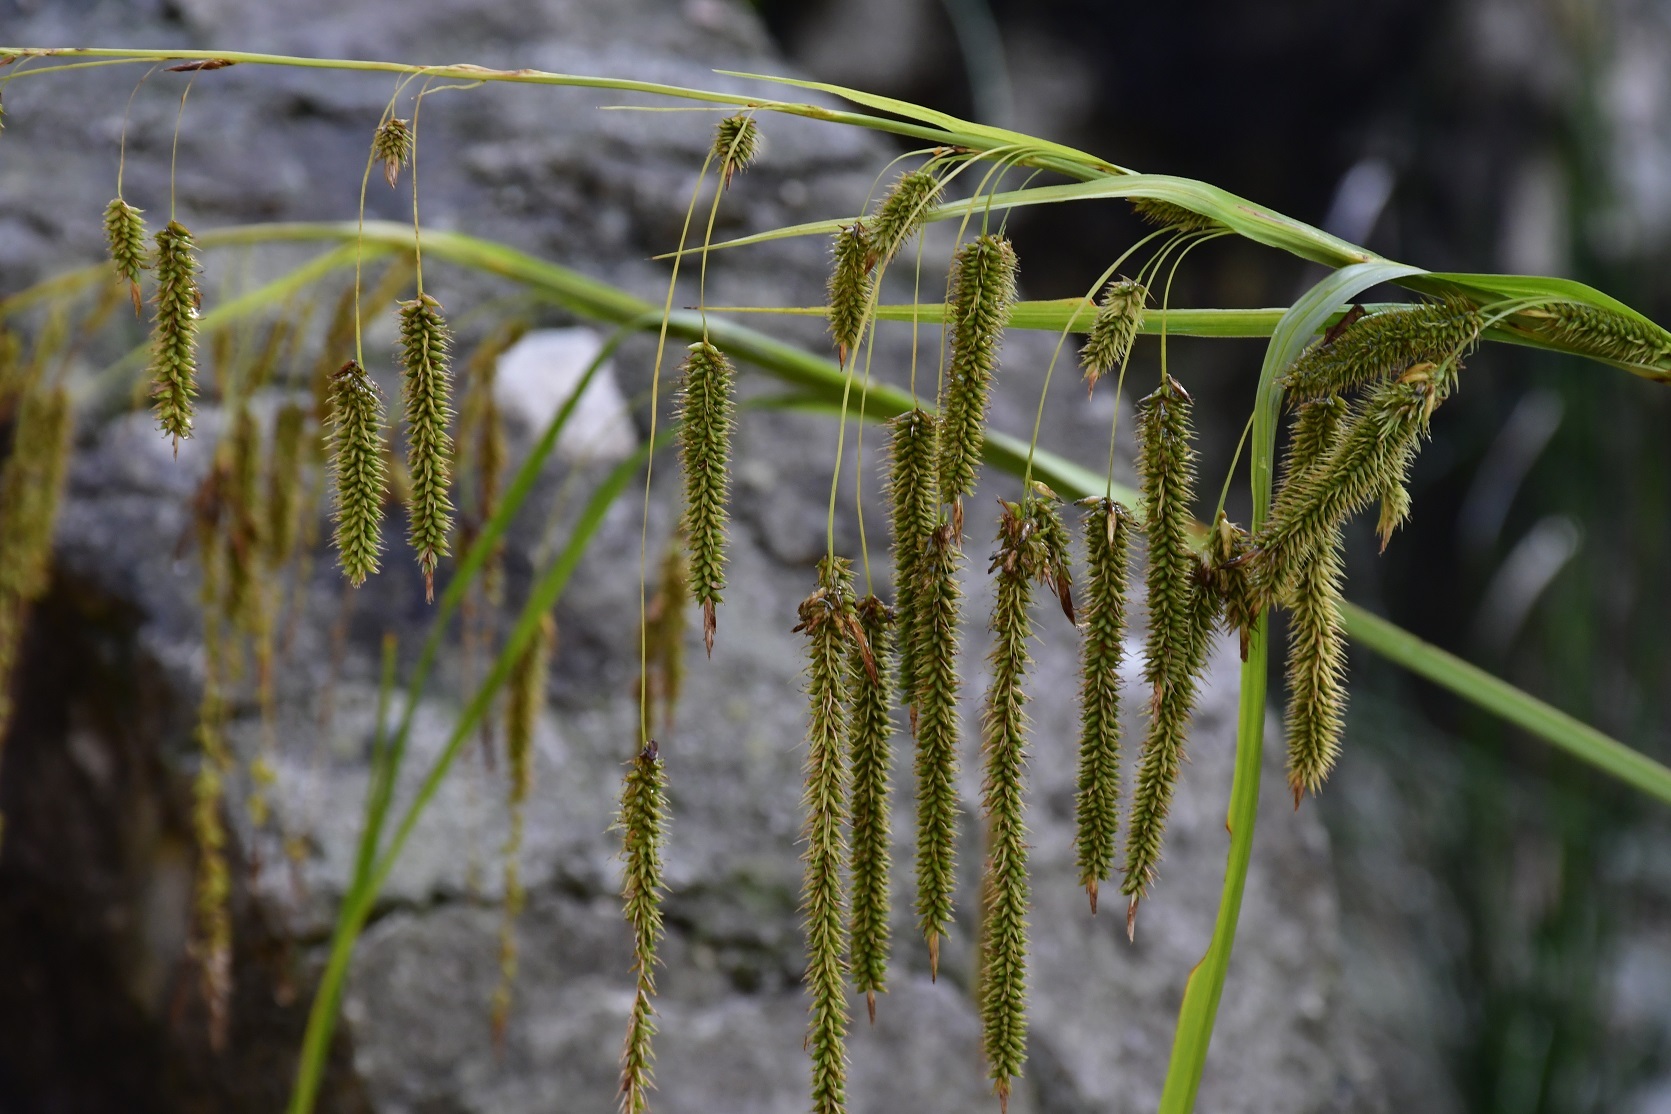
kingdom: Plantae
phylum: Tracheophyta
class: Liliopsida
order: Poales
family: Cyperaceae
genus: Carex
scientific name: Carex chordalis
